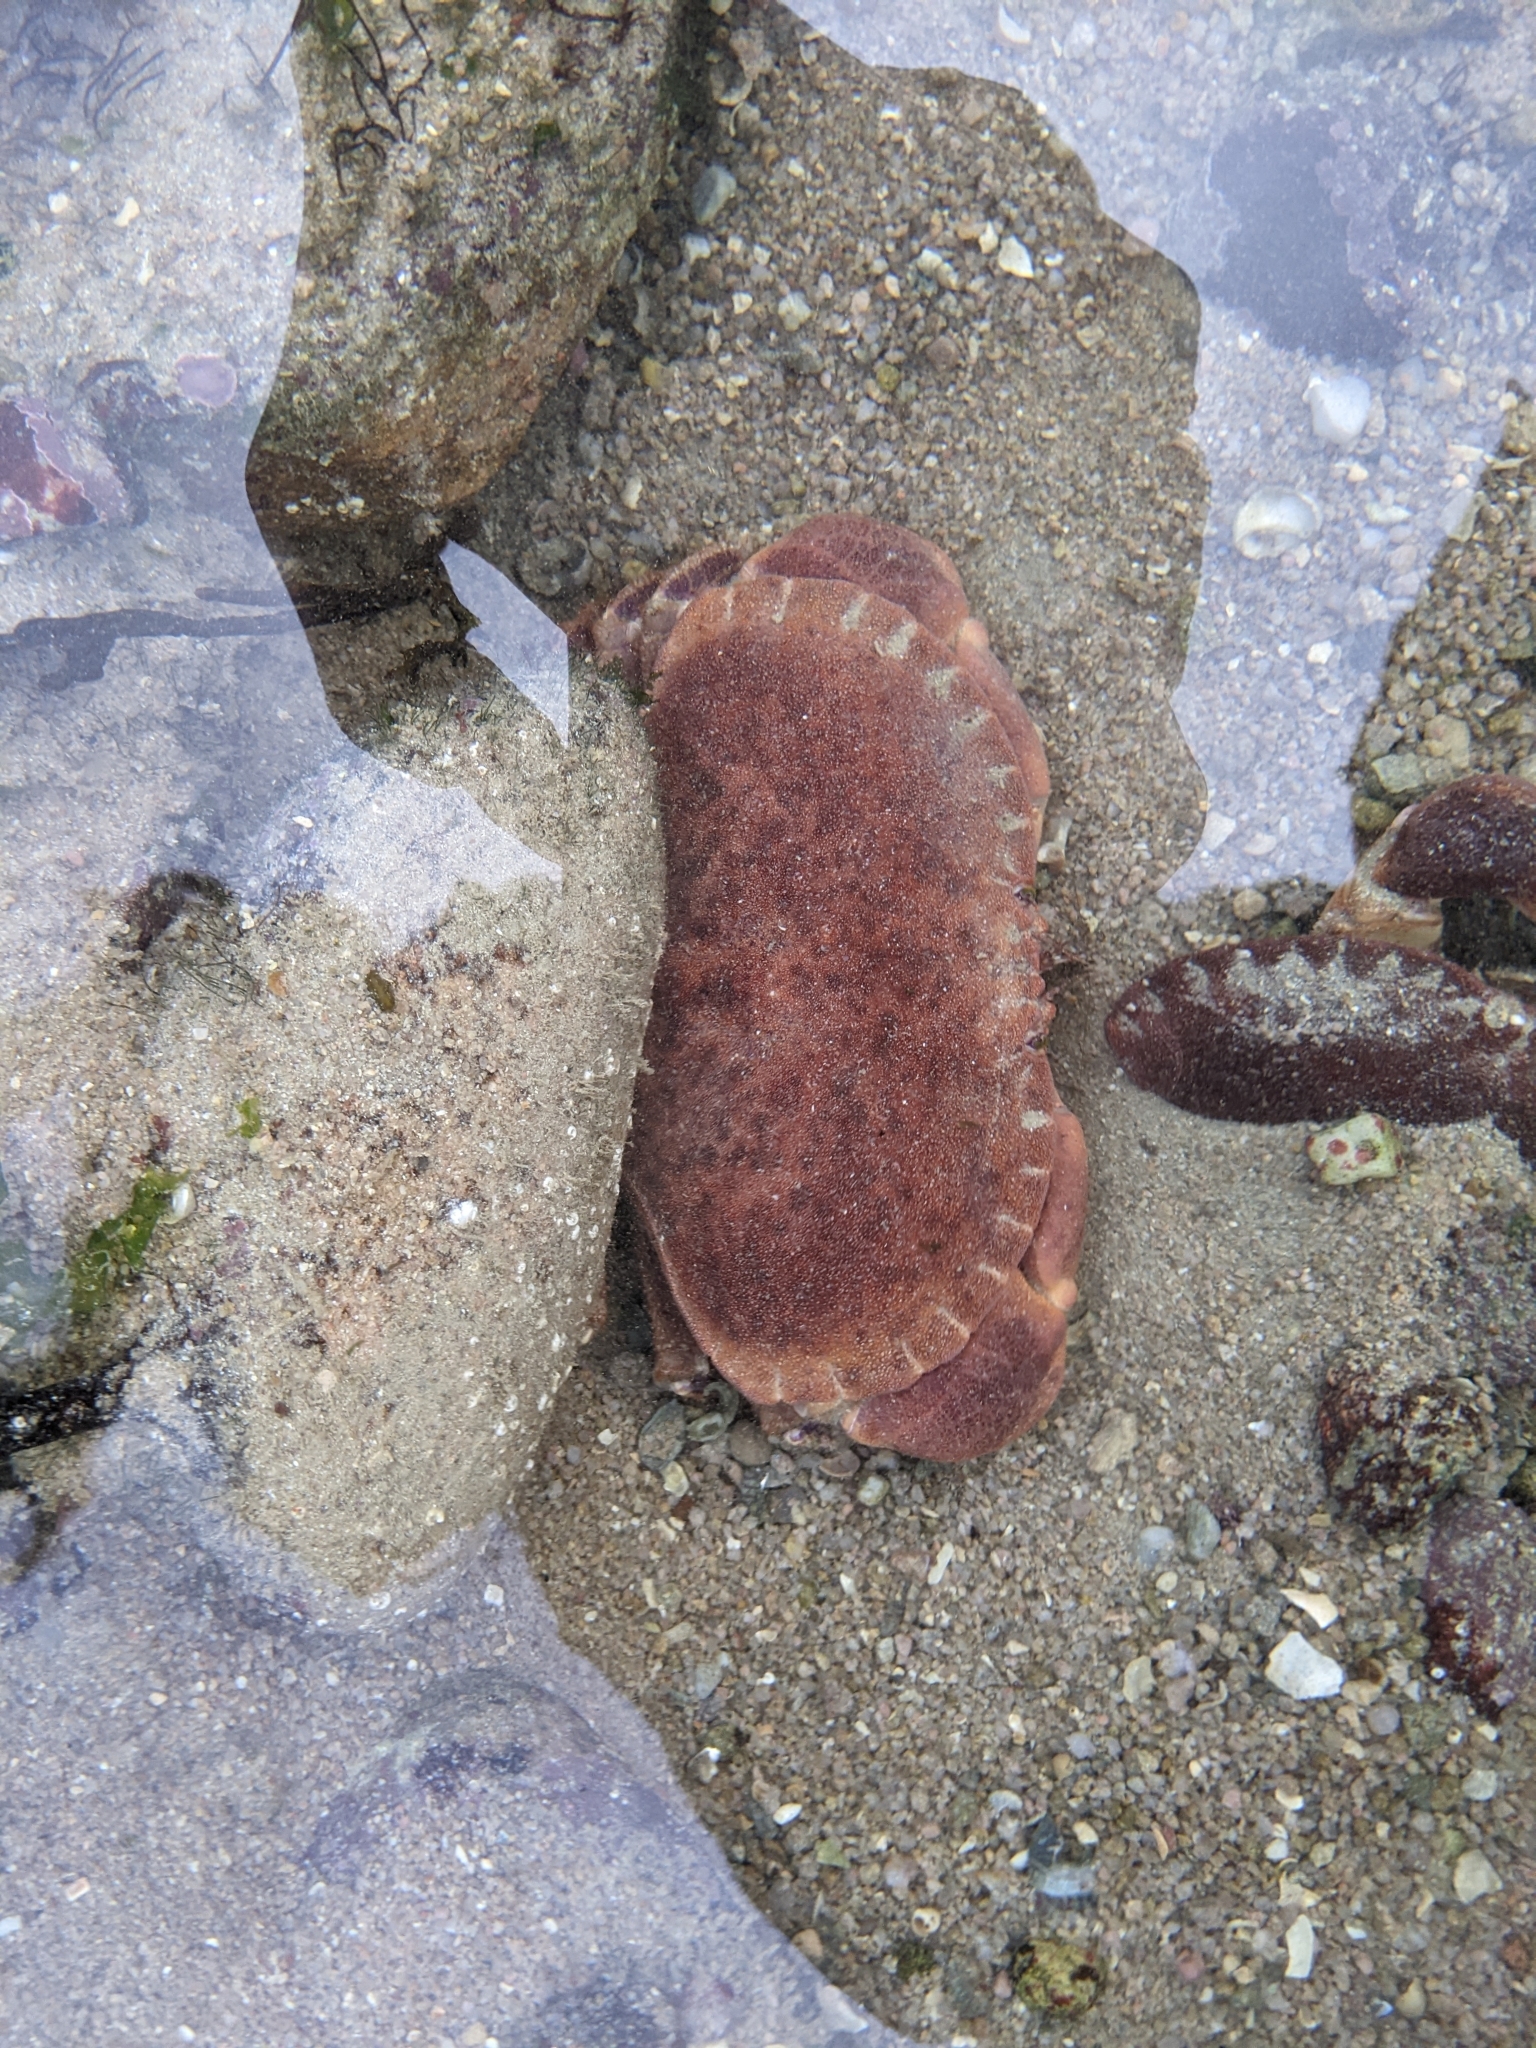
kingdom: Animalia
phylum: Arthropoda
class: Malacostraca
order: Decapoda
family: Cancridae
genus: Cancer
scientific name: Cancer pagurus
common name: Edible crab
